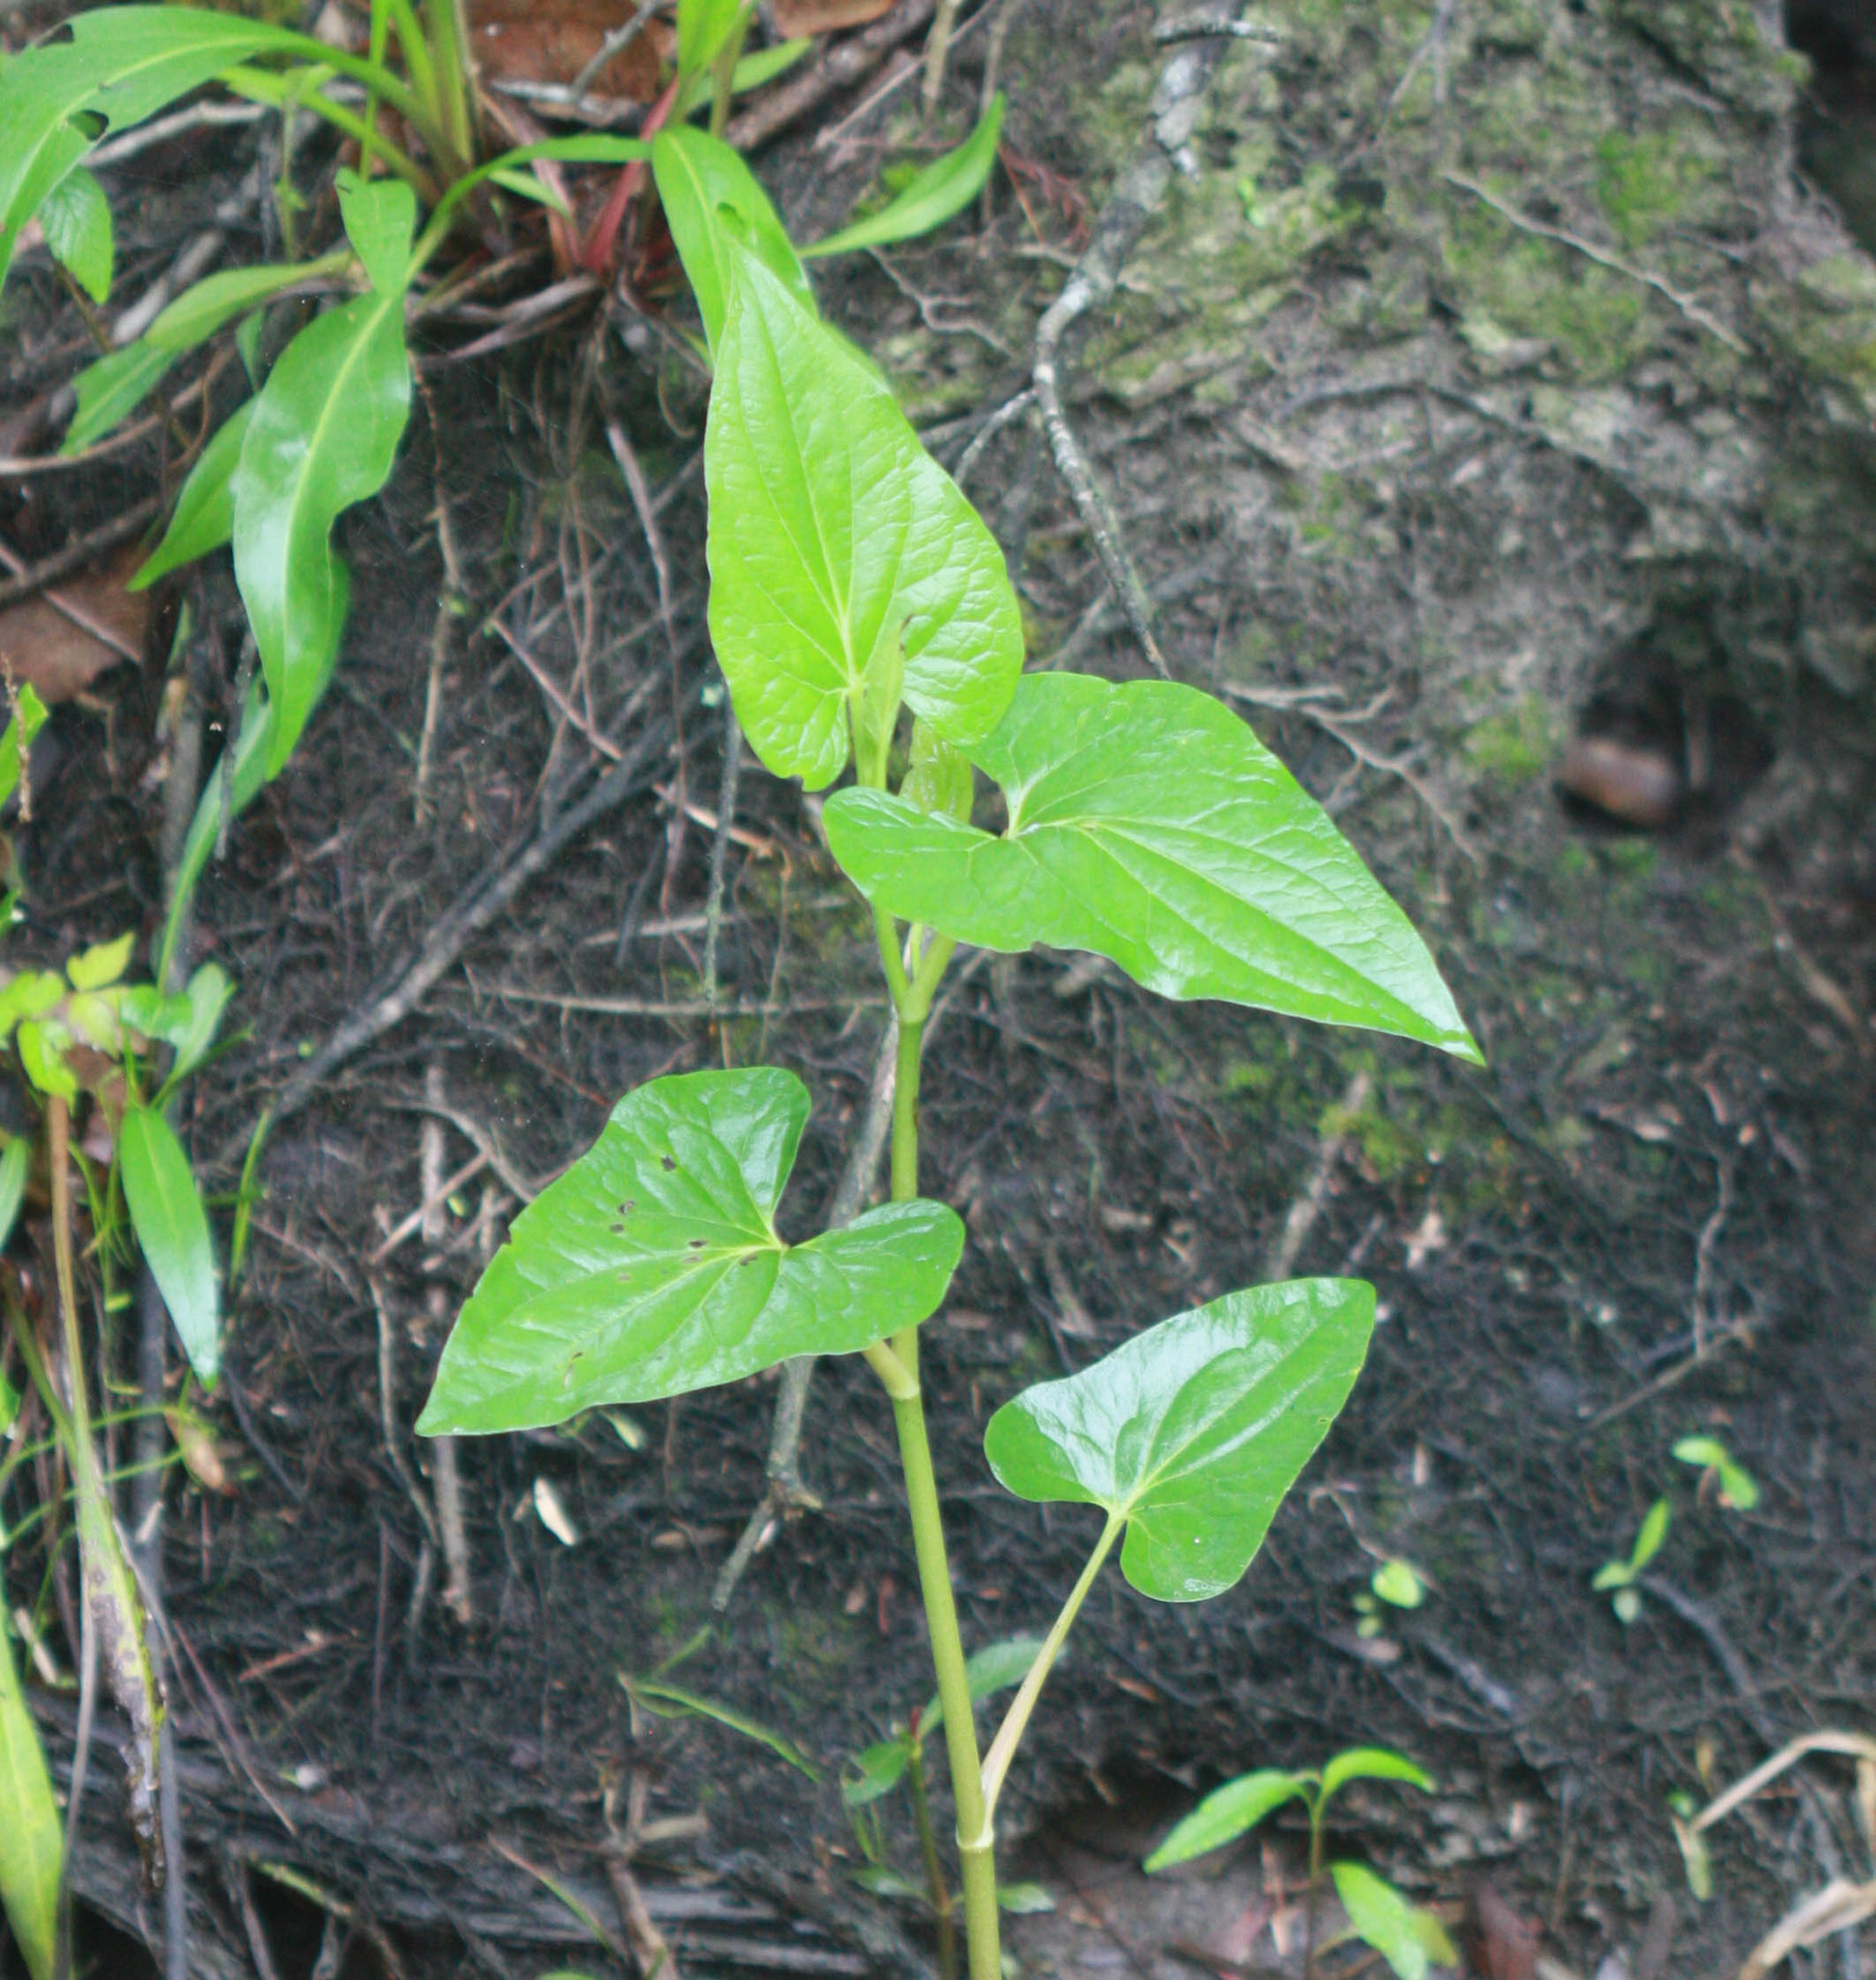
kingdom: Plantae
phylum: Tracheophyta
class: Magnoliopsida
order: Piperales
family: Saururaceae
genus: Saururus
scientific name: Saururus cernuus
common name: Lizard's-tail
